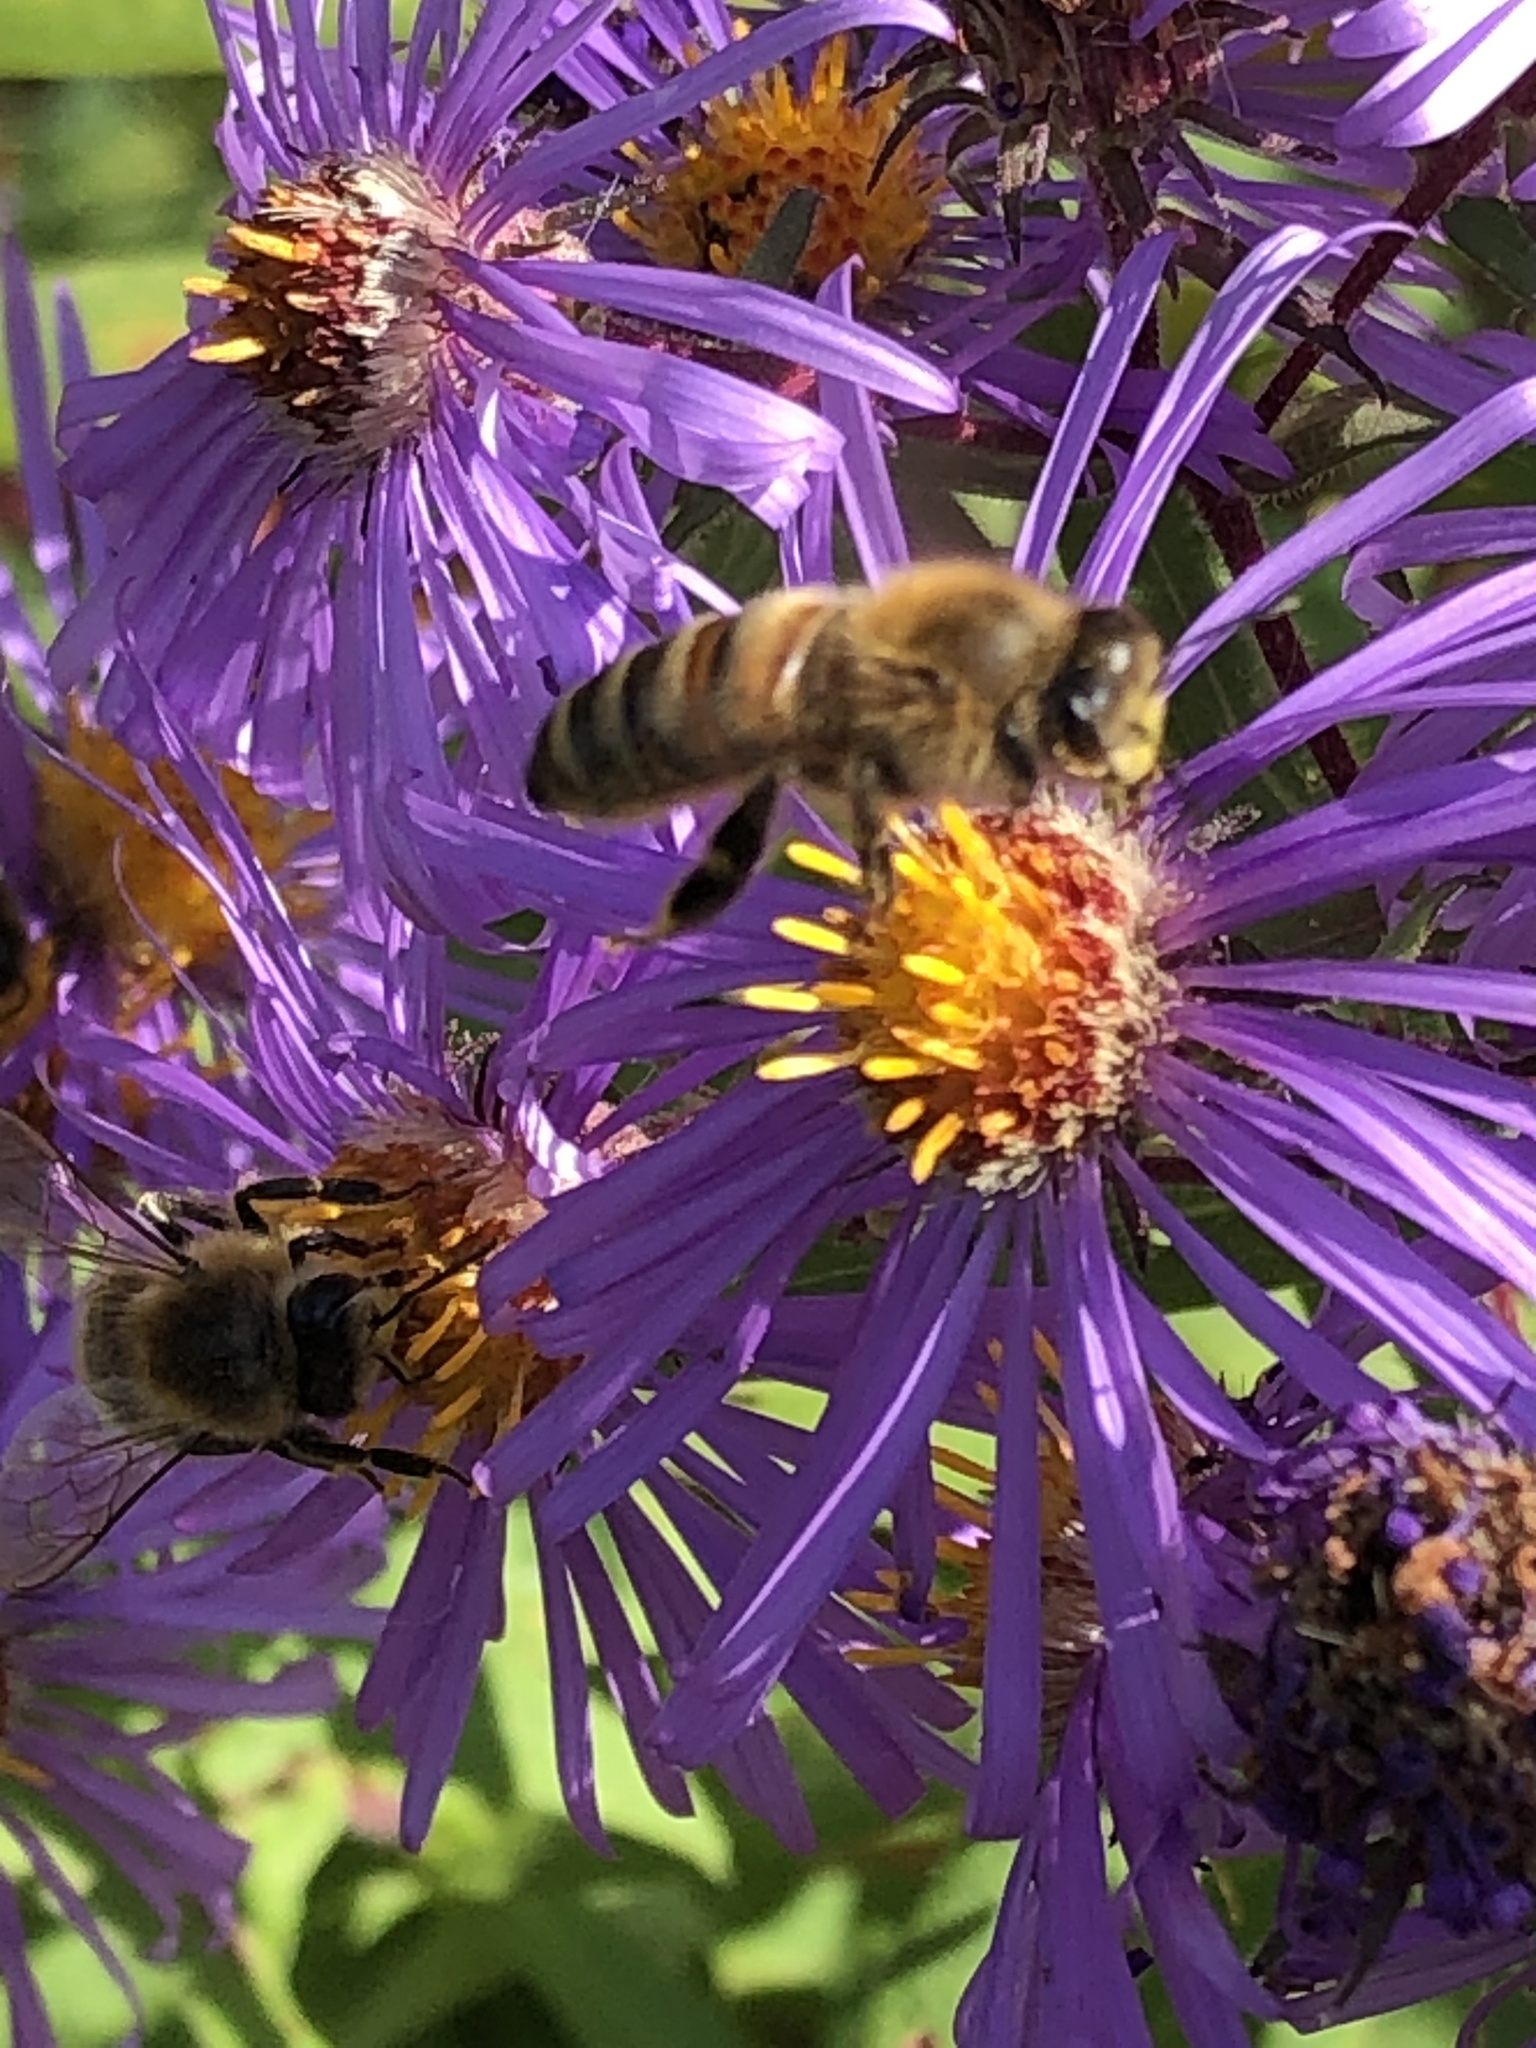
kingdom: Animalia
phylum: Arthropoda
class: Insecta
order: Hymenoptera
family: Apidae
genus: Apis
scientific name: Apis mellifera
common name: Honey bee
